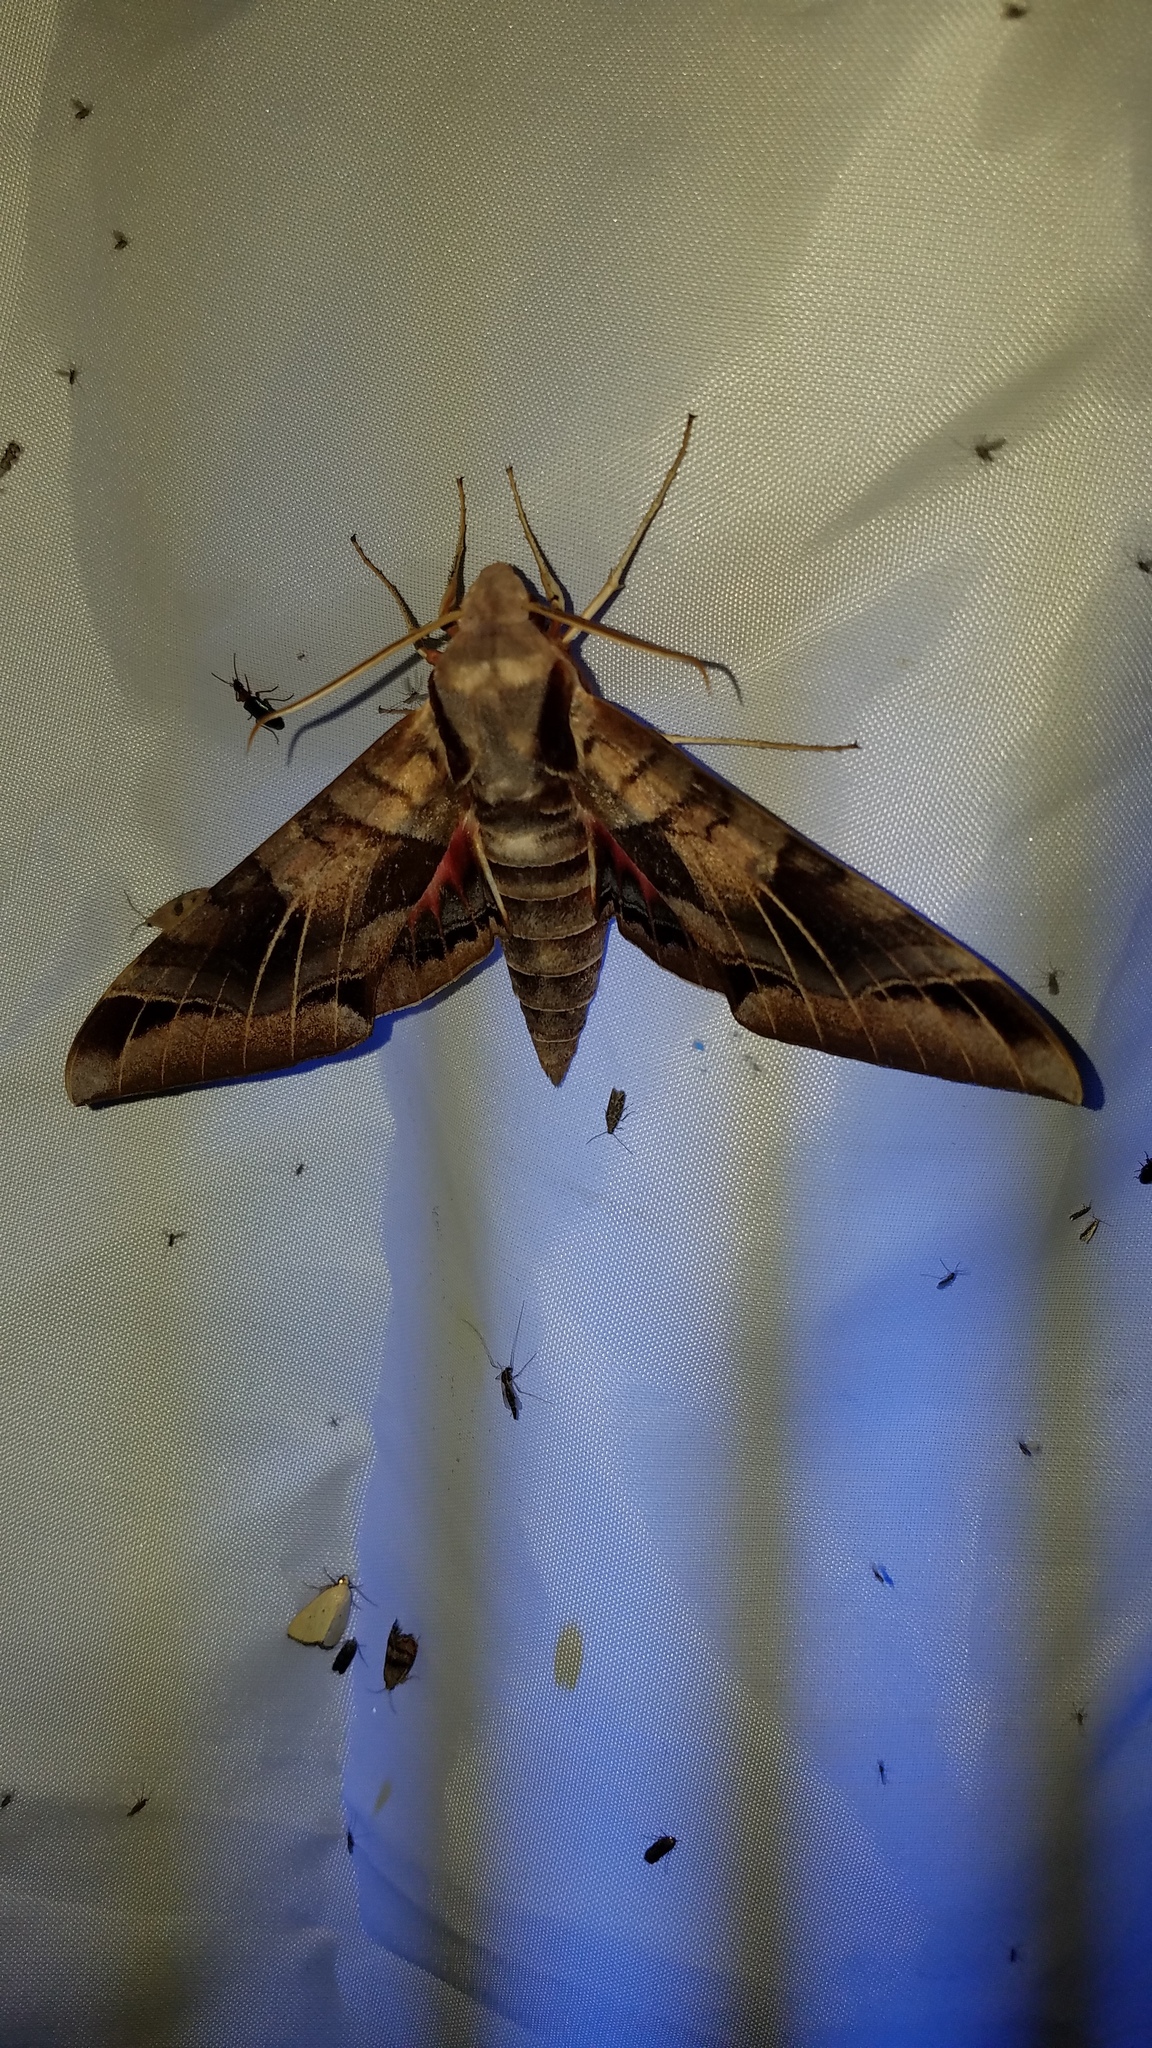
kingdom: Animalia
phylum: Arthropoda
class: Insecta
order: Lepidoptera
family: Sphingidae
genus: Eumorpha
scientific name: Eumorpha typhon
